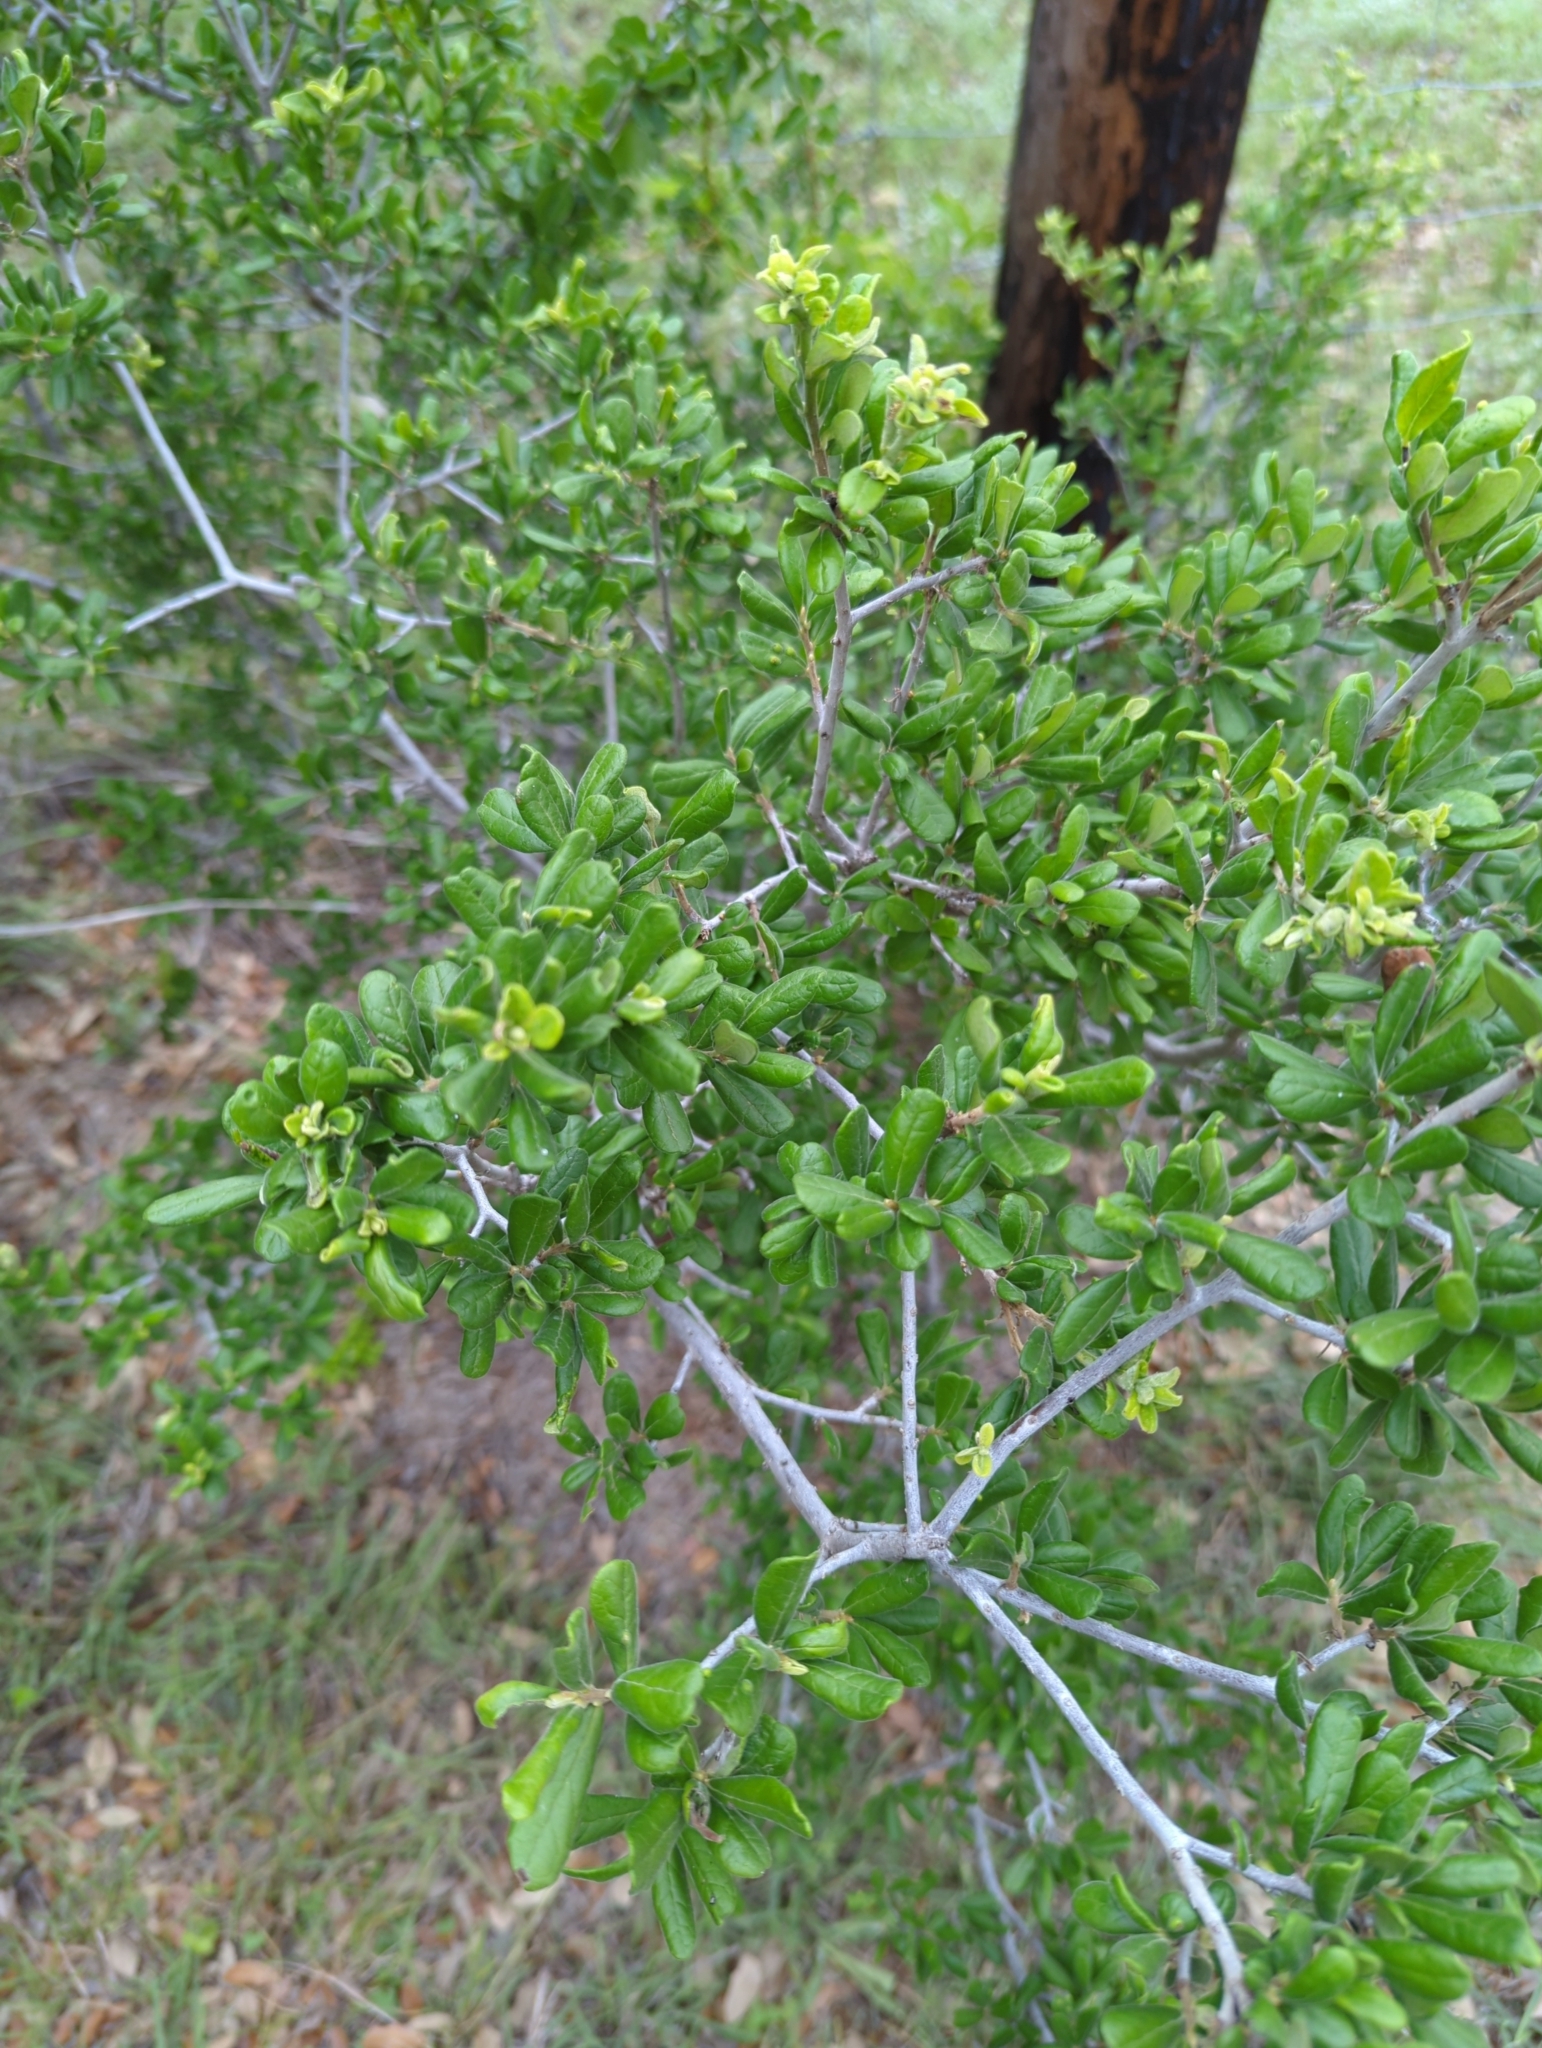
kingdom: Plantae
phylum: Tracheophyta
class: Magnoliopsida
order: Ericales
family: Ebenaceae
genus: Diospyros
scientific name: Diospyros texana
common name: Texas persimmon
